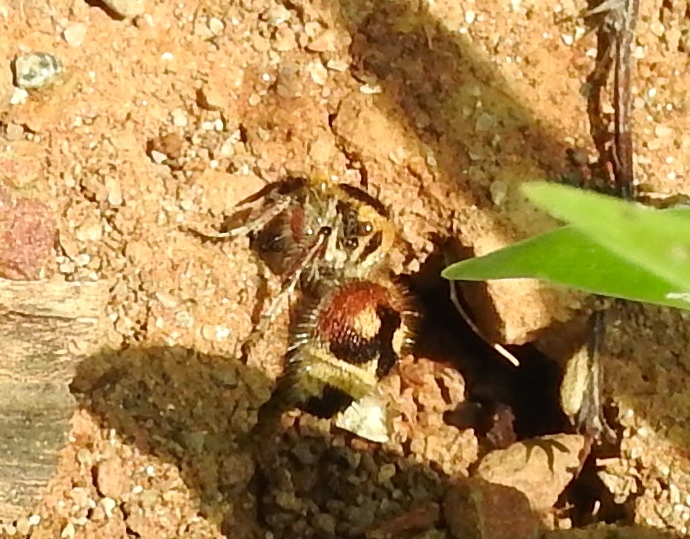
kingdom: Animalia
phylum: Arthropoda
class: Insecta
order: Hymenoptera
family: Mutillidae
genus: Dasymutilla
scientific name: Dasymutilla
